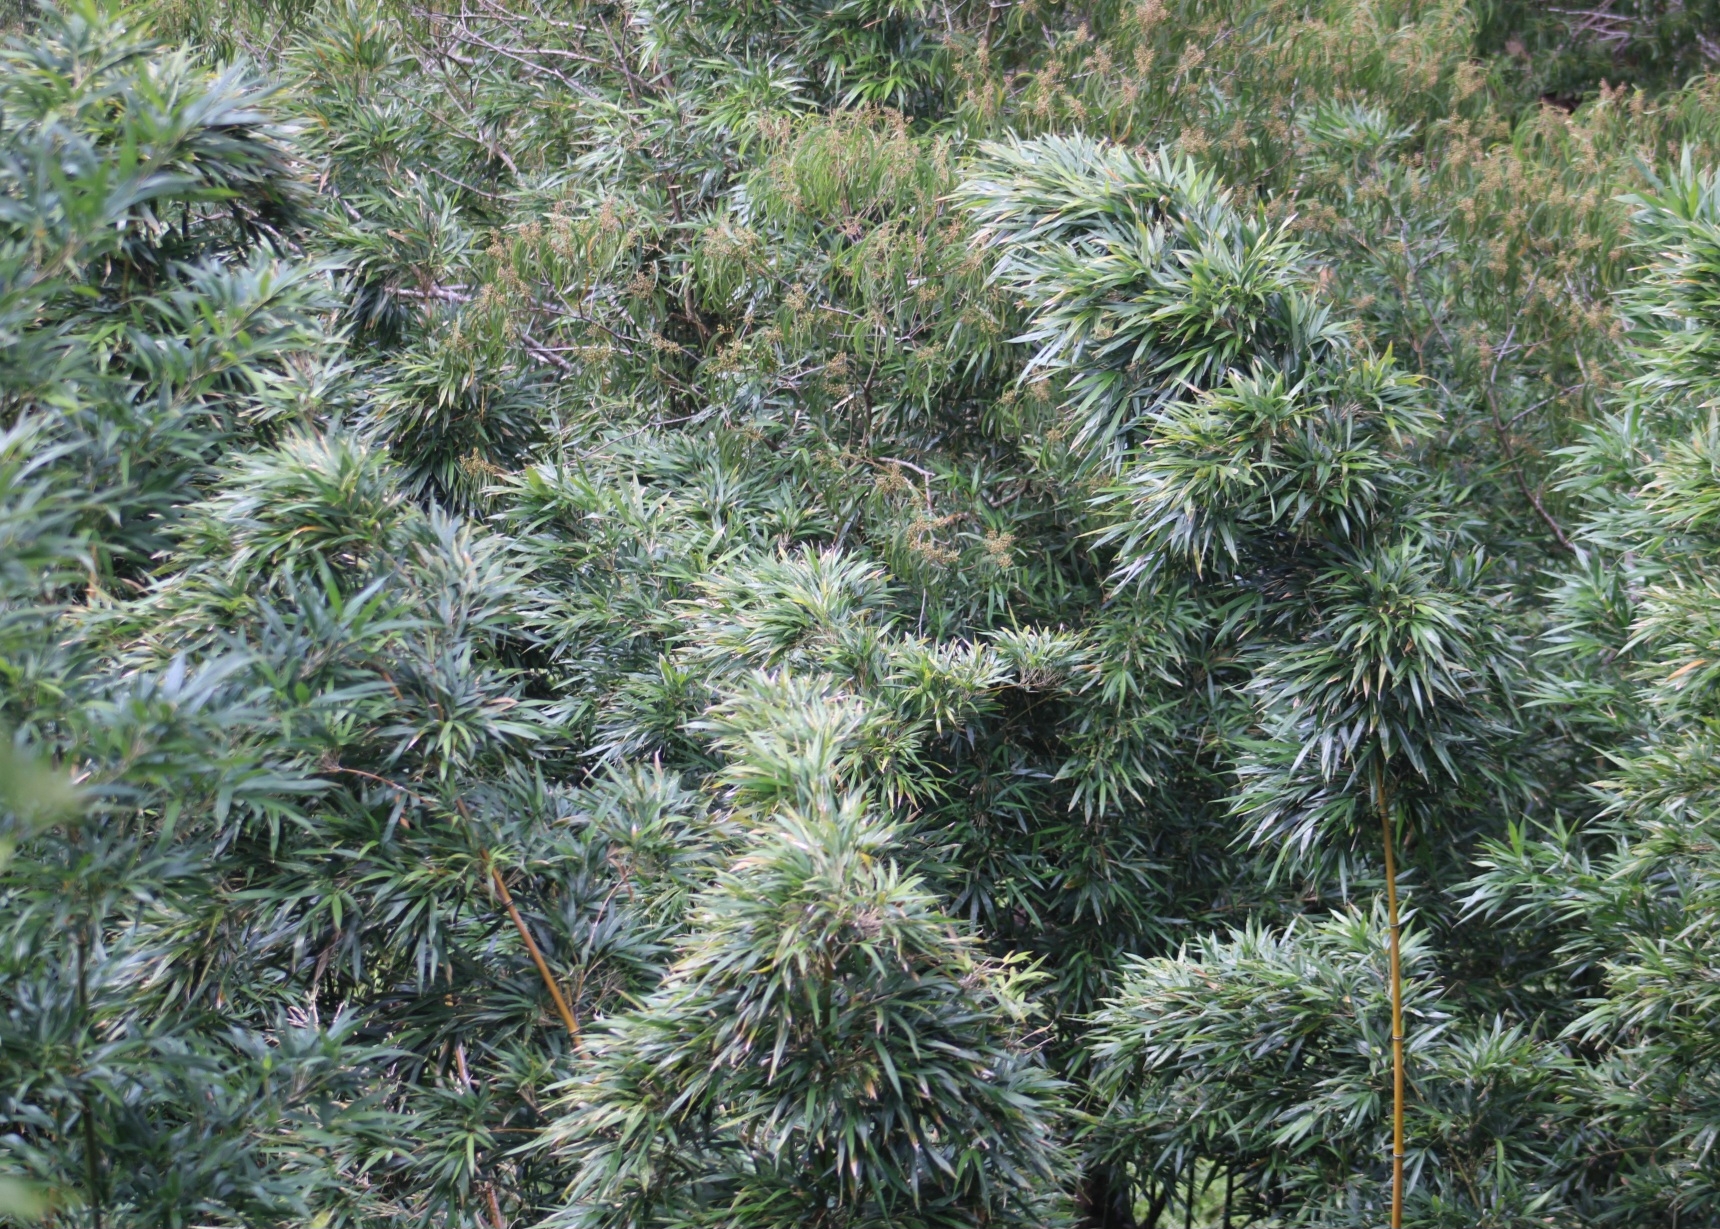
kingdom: Plantae
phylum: Tracheophyta
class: Liliopsida
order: Poales
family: Poaceae
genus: Phyllostachys
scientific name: Phyllostachys nigra
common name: Black bamboo
